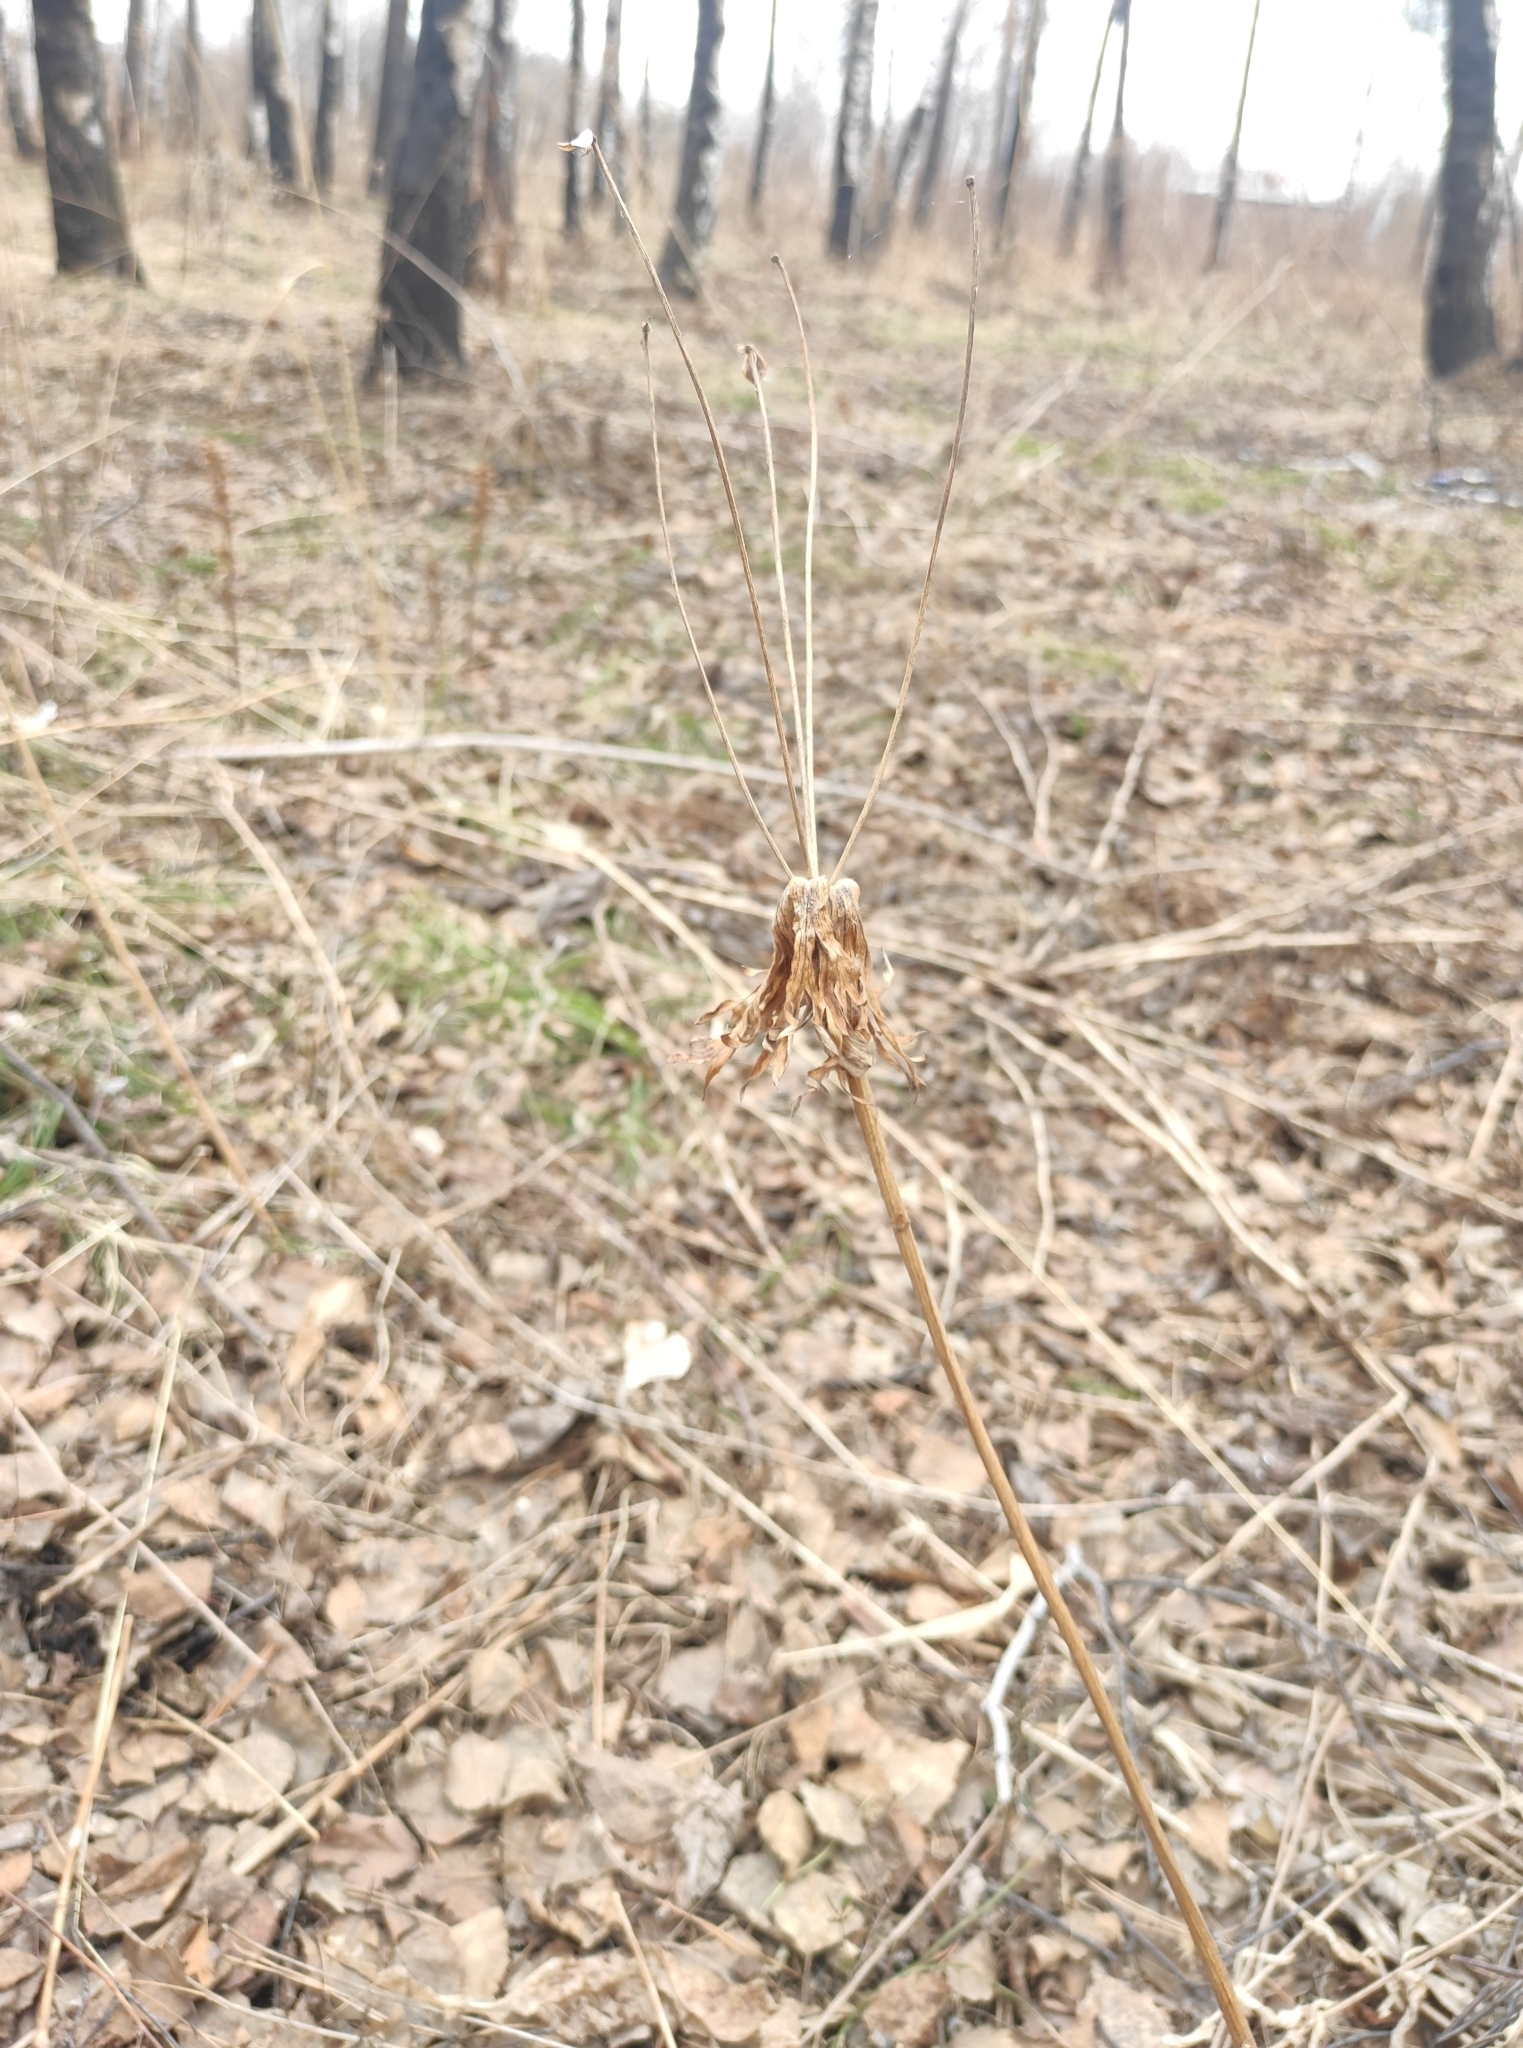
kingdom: Plantae
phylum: Tracheophyta
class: Magnoliopsida
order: Ranunculales
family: Ranunculaceae
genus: Anemonastrum
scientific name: Anemonastrum narcissiflorum
